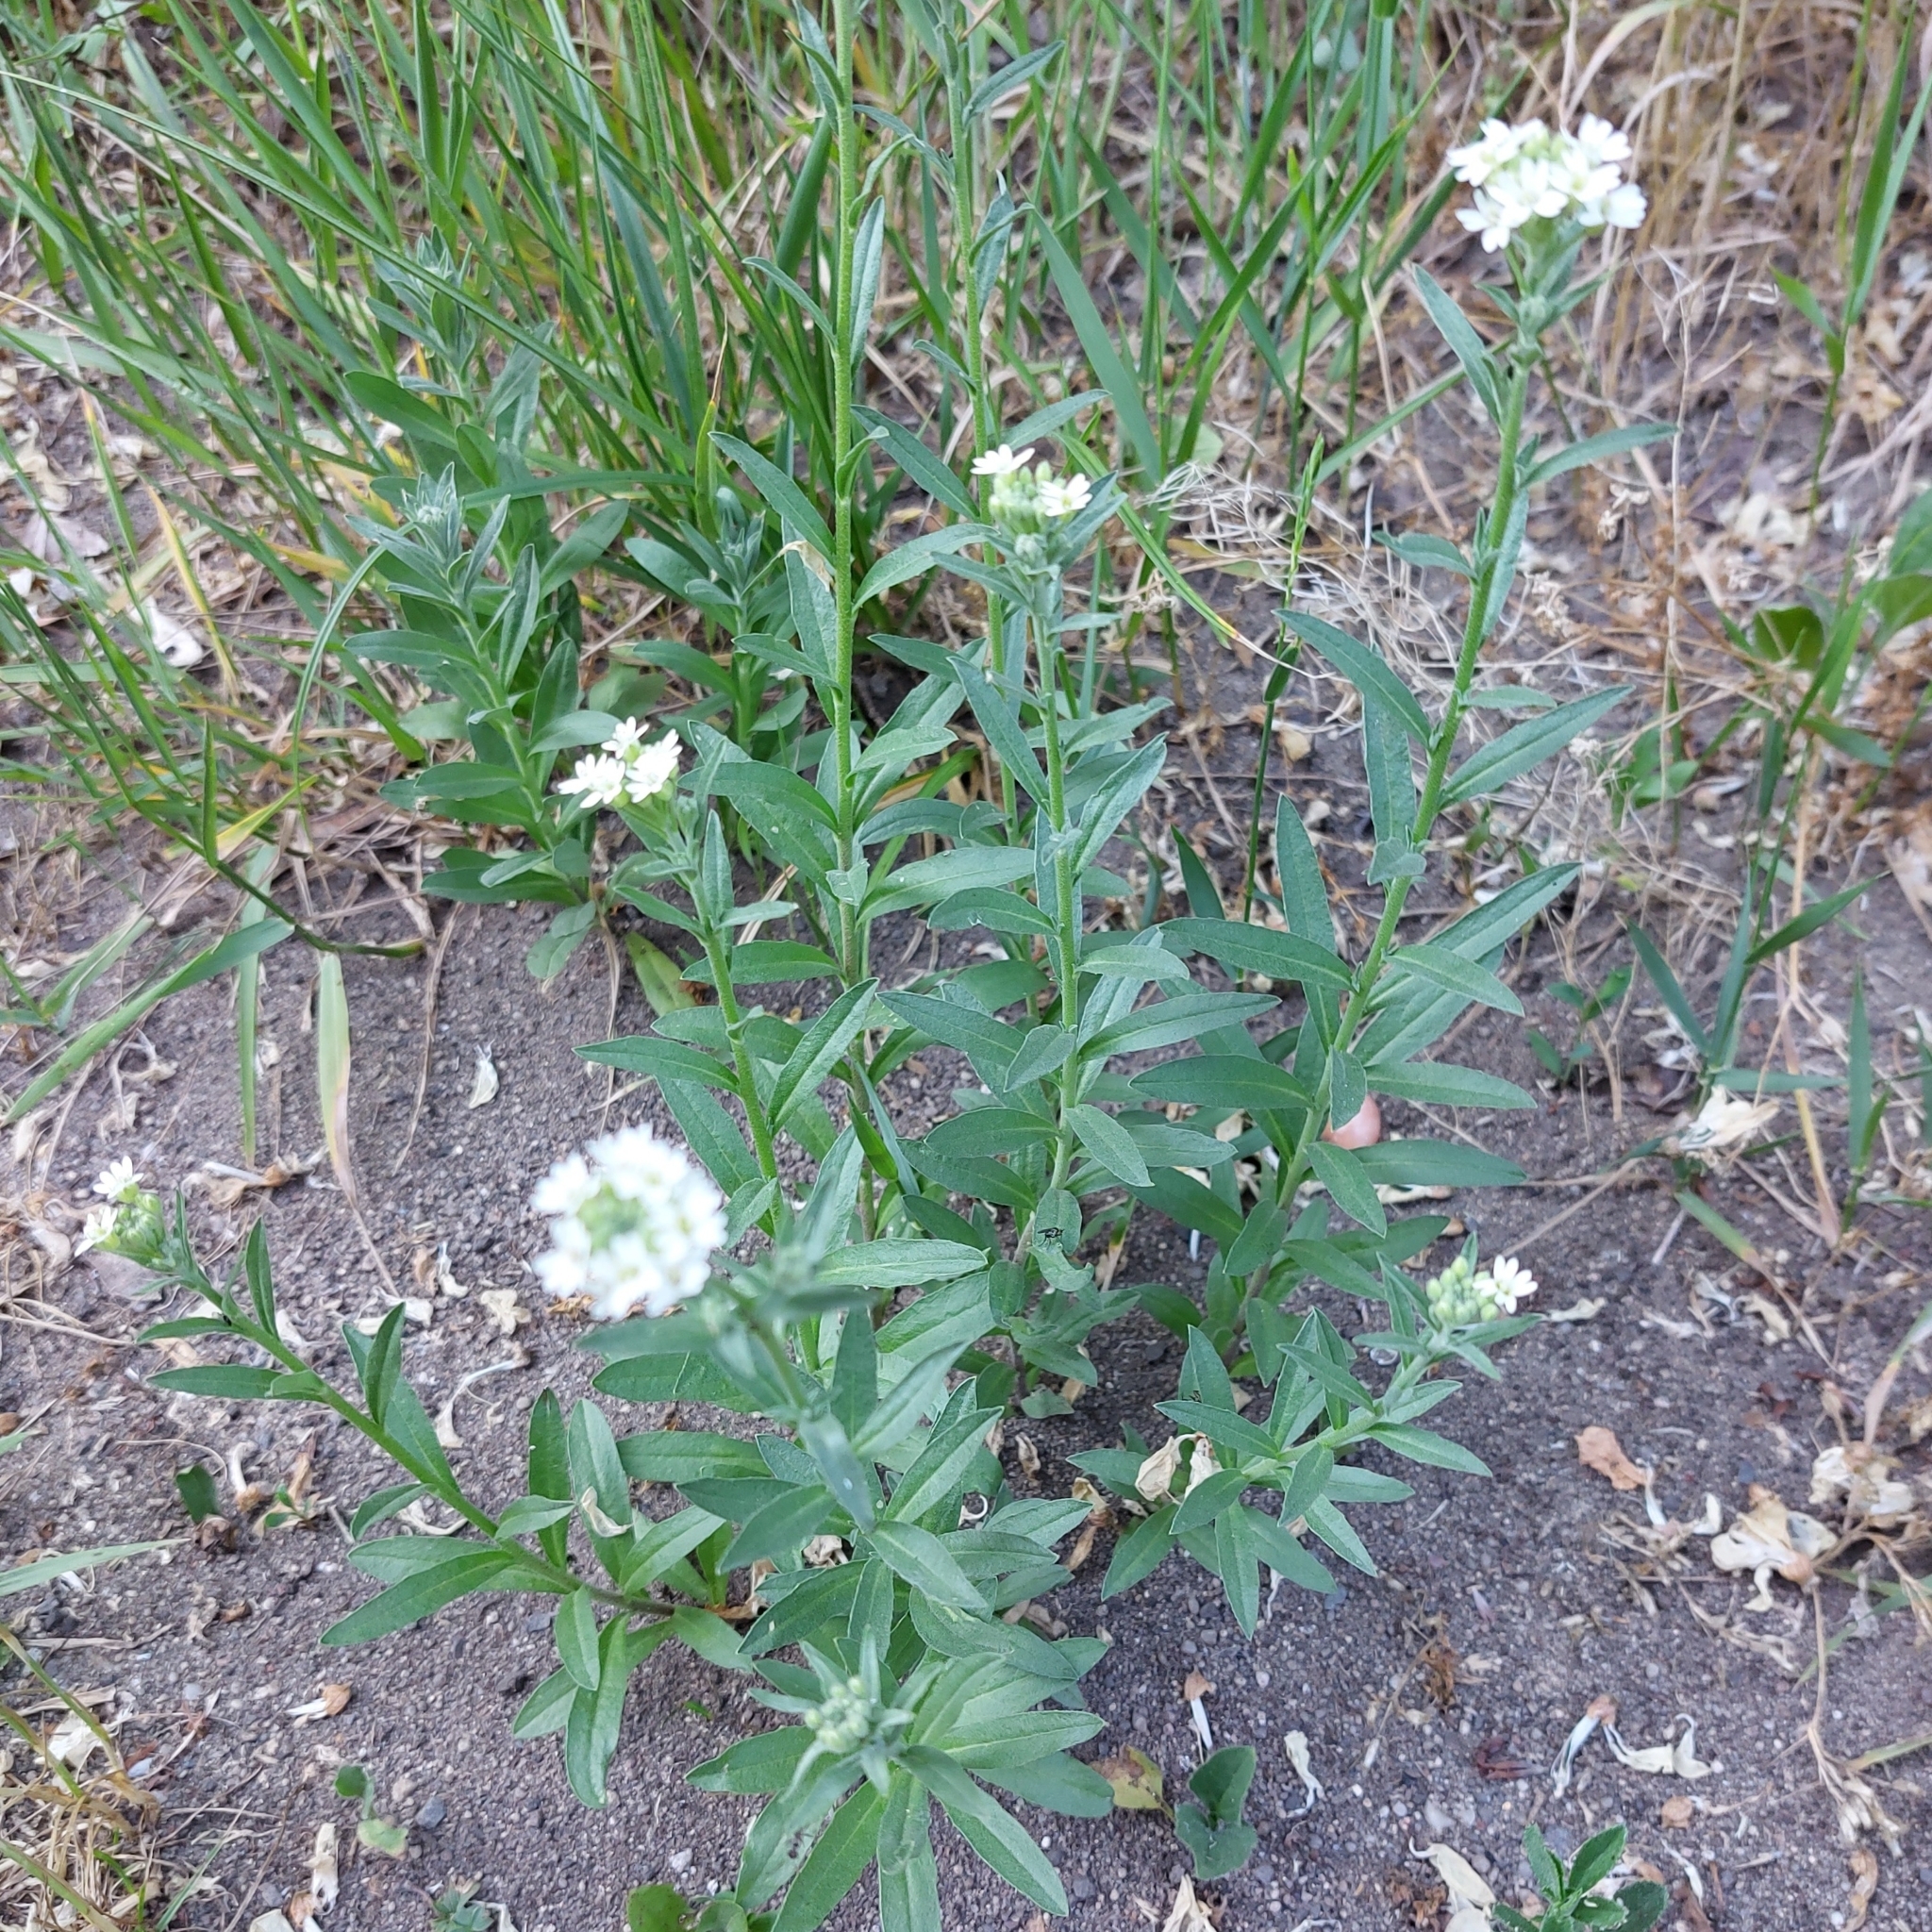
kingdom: Plantae
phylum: Tracheophyta
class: Magnoliopsida
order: Brassicales
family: Brassicaceae
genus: Berteroa
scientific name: Berteroa incana
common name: Hoary alison
